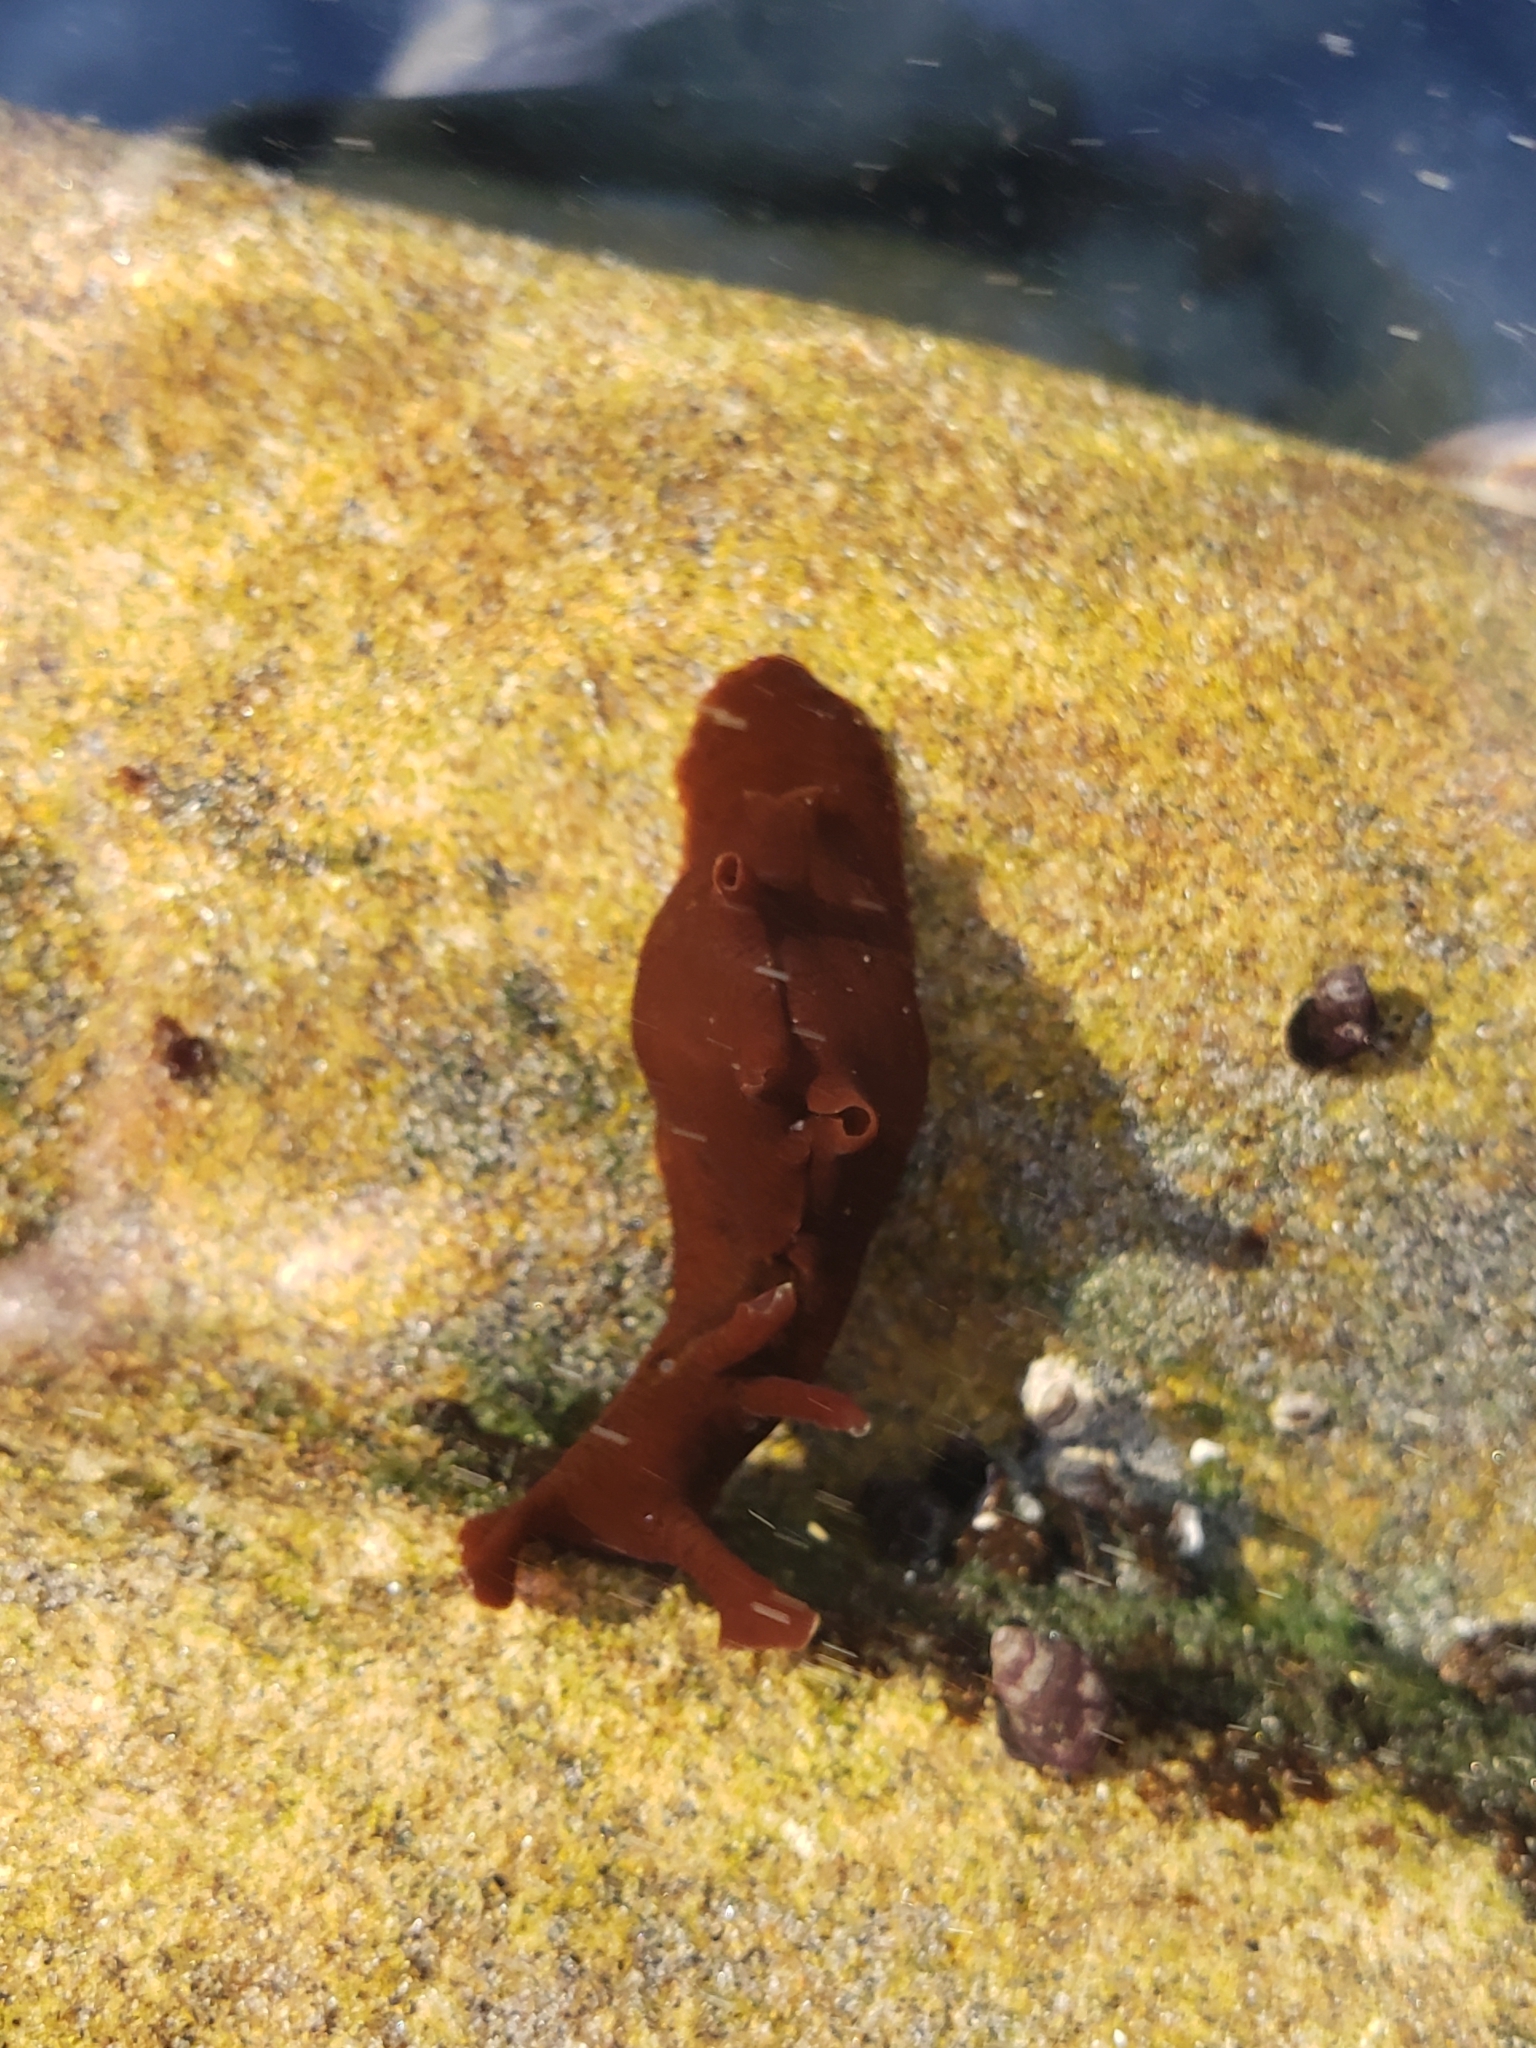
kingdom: Animalia
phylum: Mollusca
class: Gastropoda
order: Aplysiida
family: Aplysiidae
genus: Aplysia
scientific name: Aplysia californica
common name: California seahare
